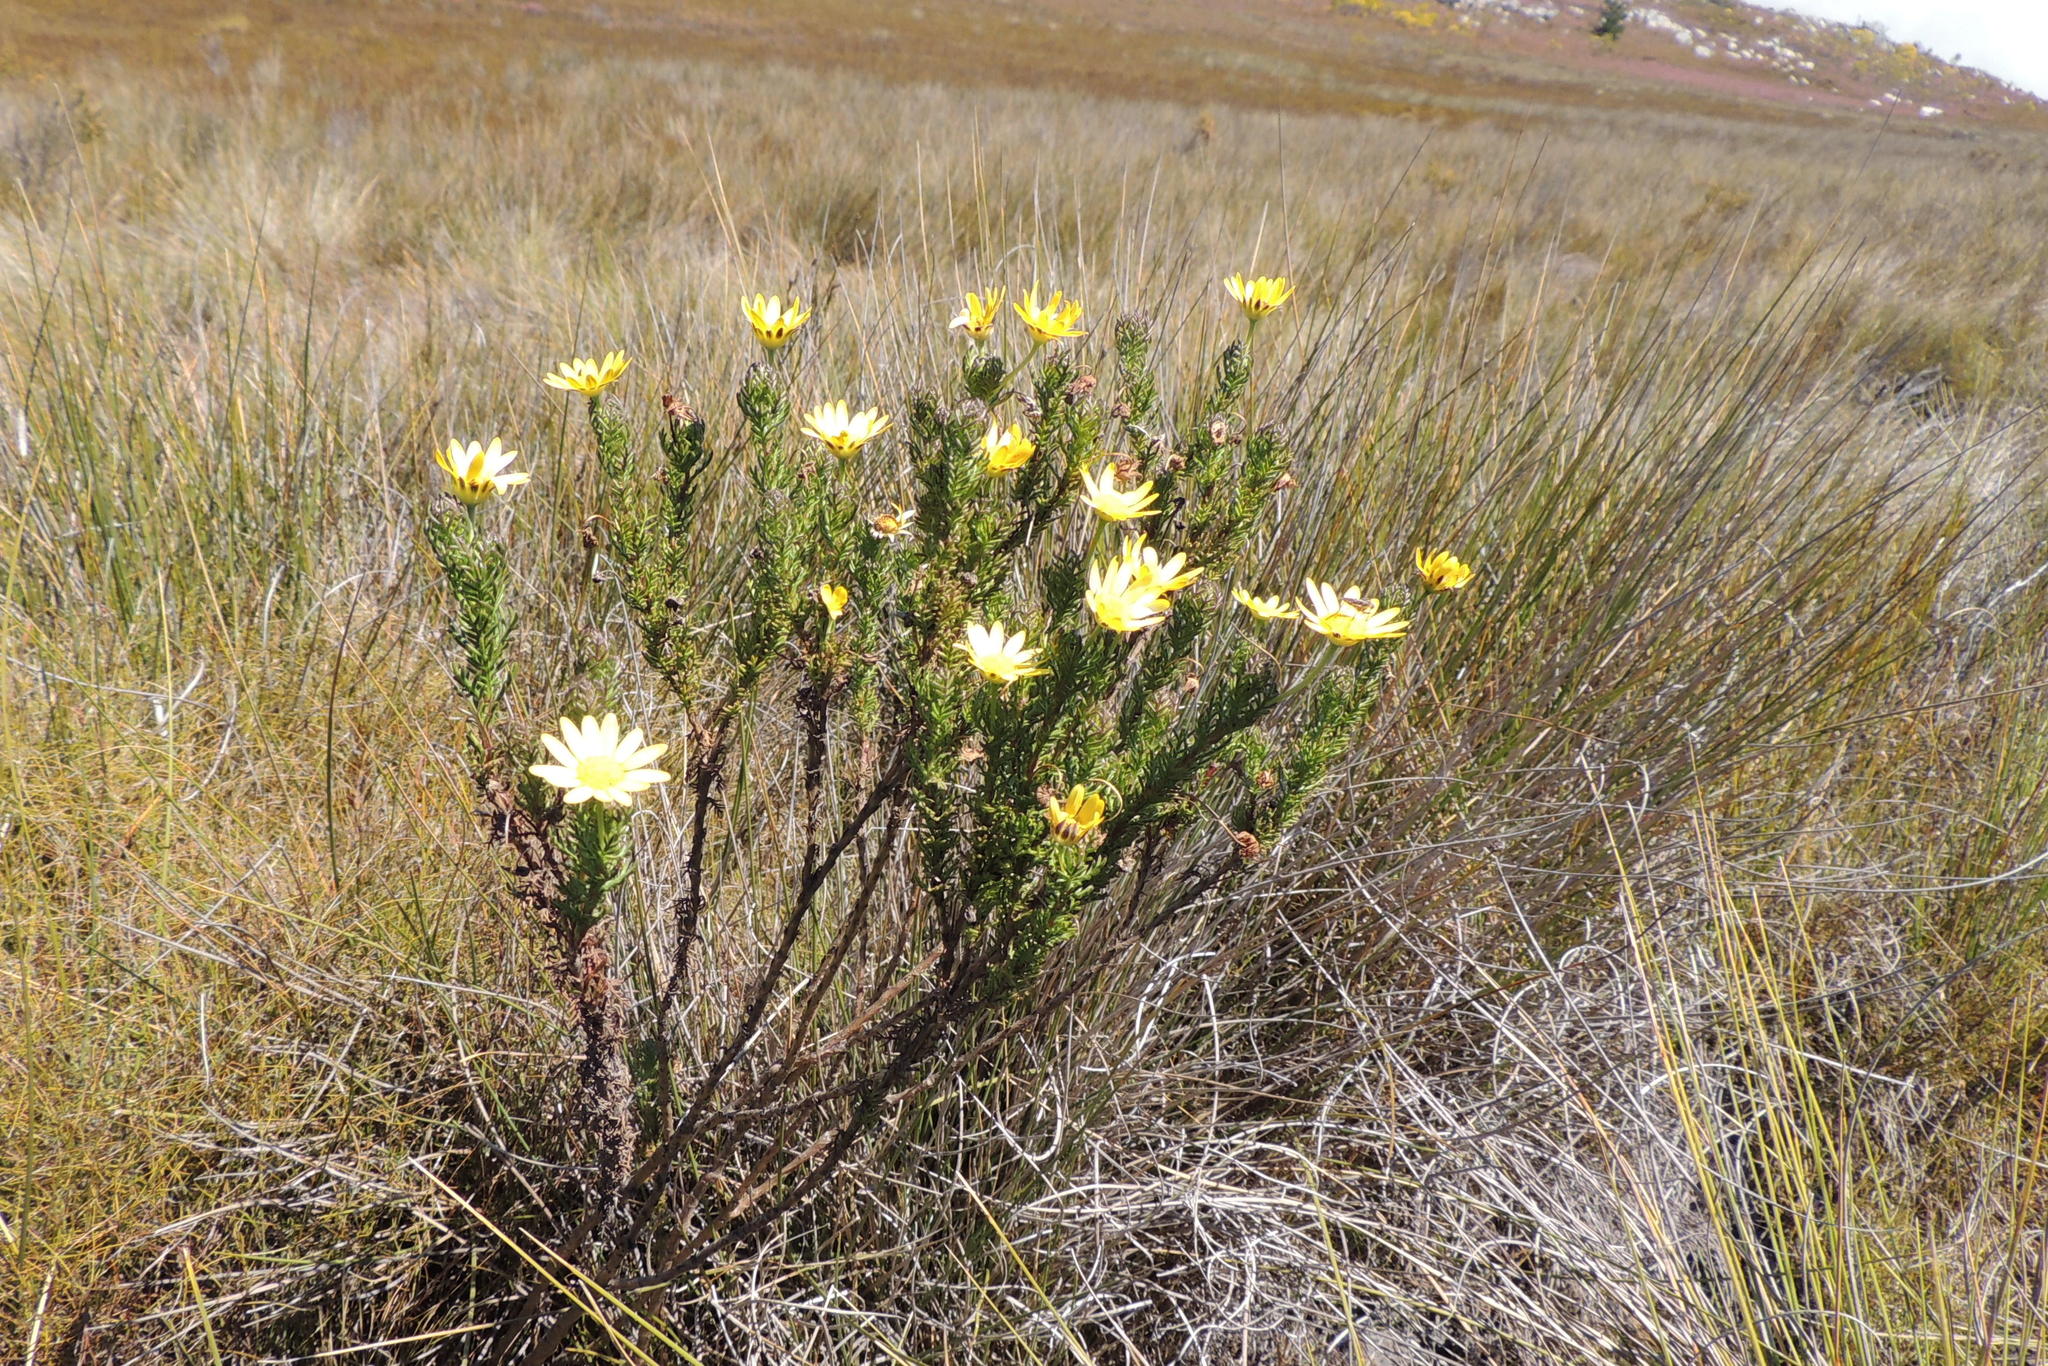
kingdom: Plantae
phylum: Tracheophyta
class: Magnoliopsida
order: Asterales
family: Asteraceae
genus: Euryops
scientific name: Euryops pinnatipartitus
